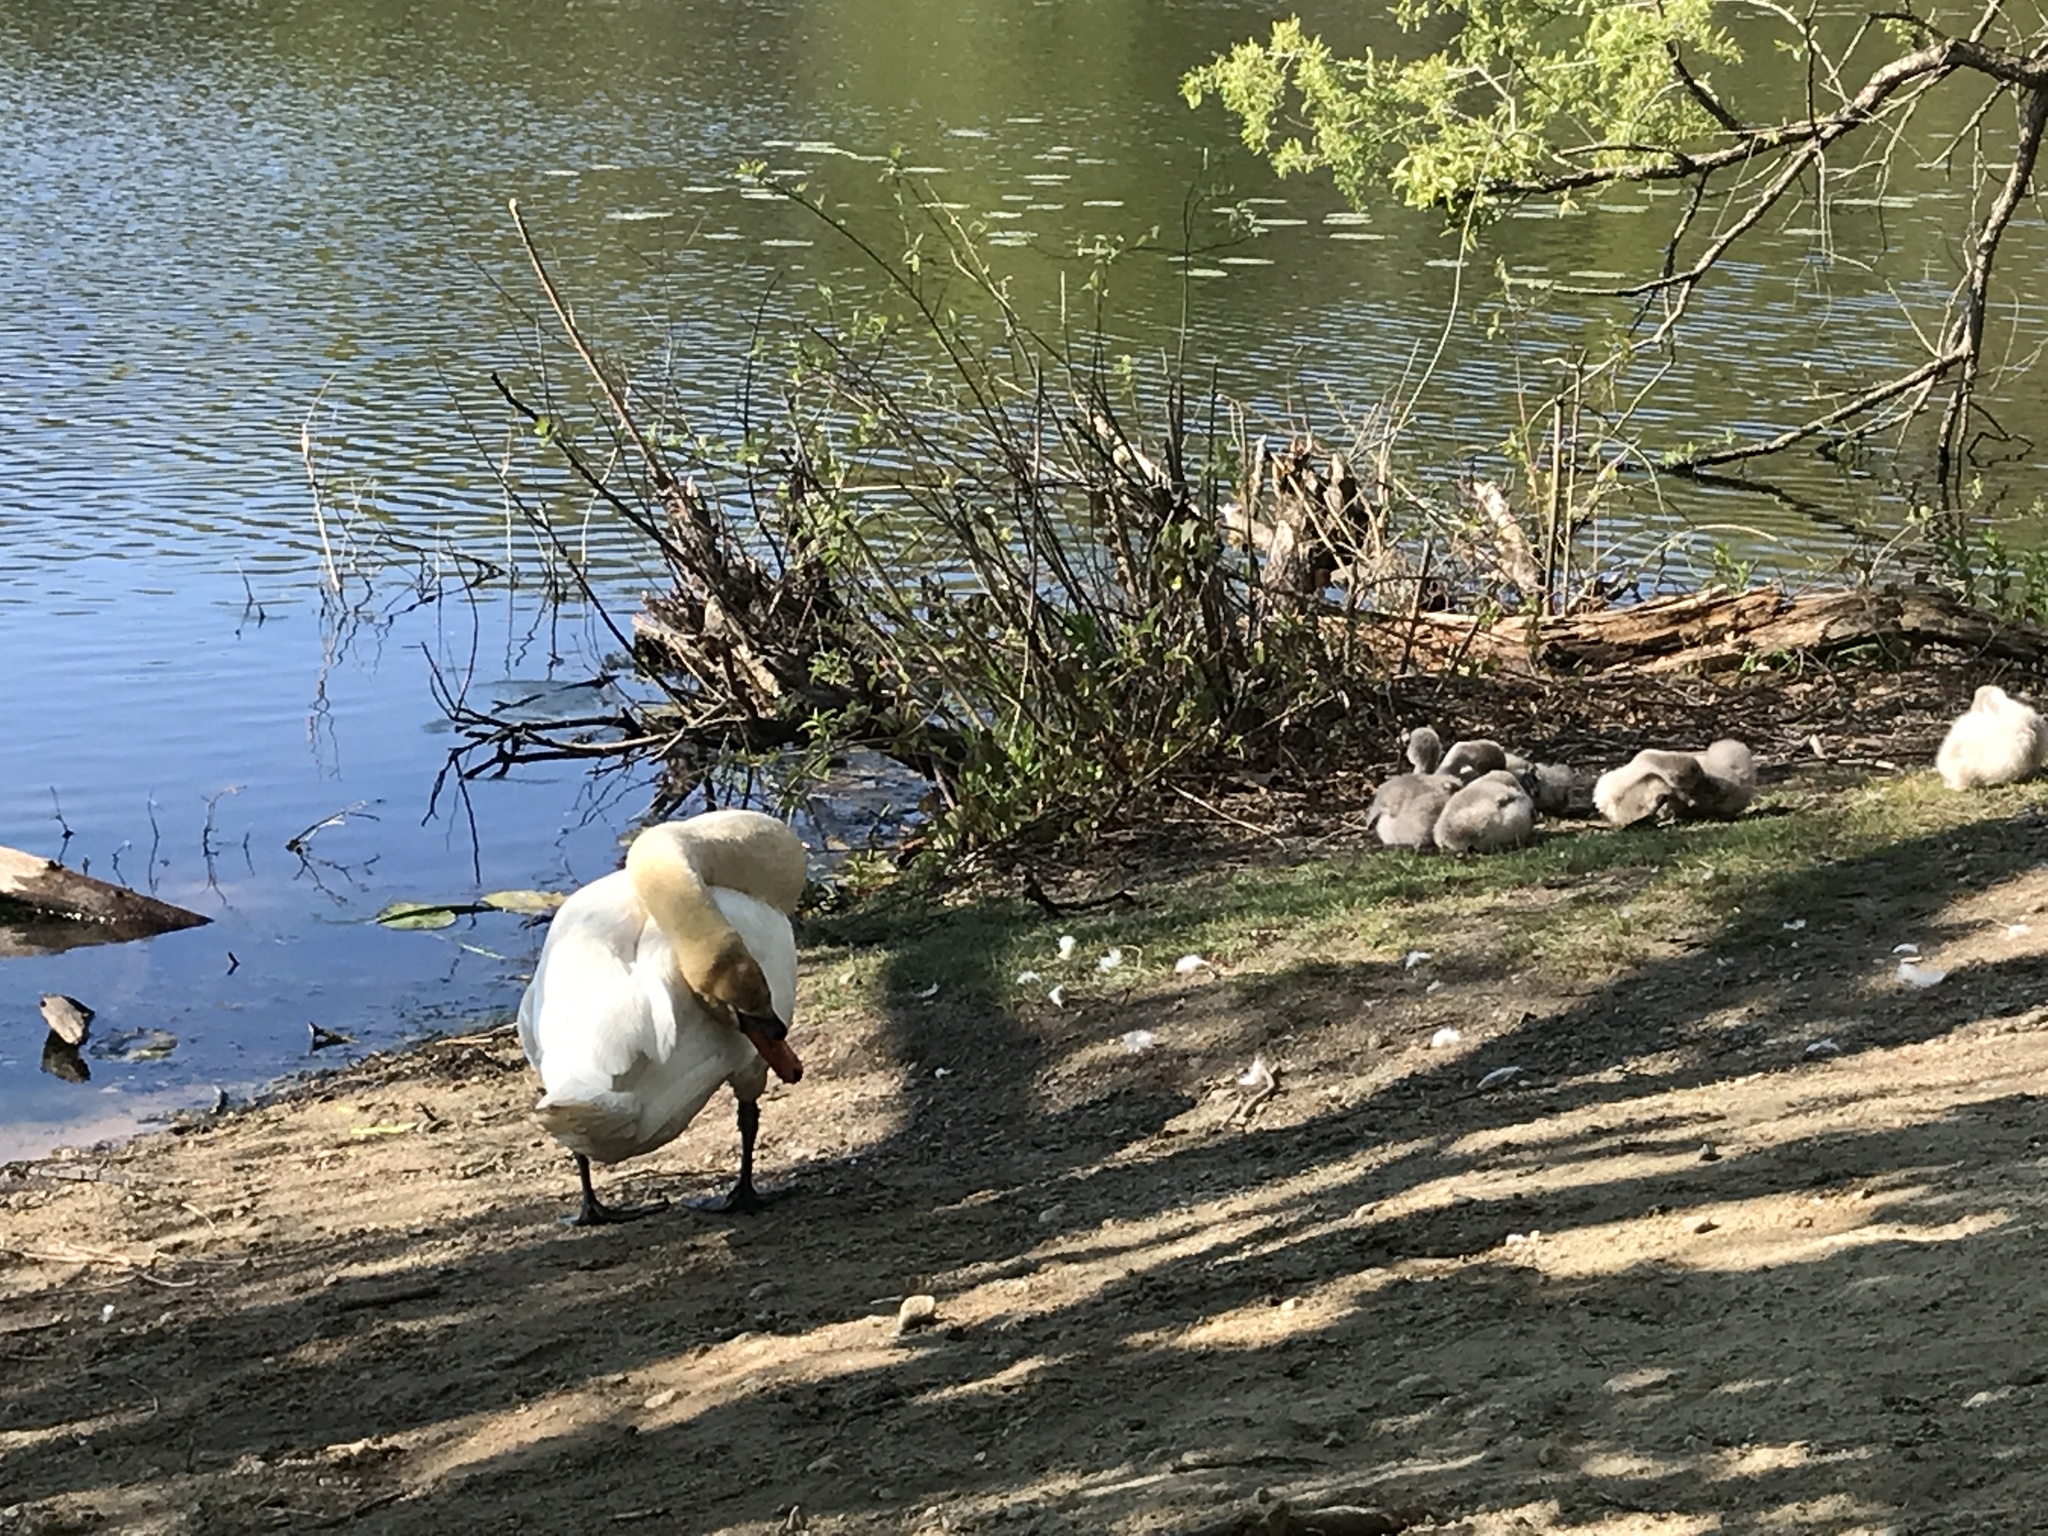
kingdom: Animalia
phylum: Chordata
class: Aves
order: Anseriformes
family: Anatidae
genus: Cygnus
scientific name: Cygnus olor
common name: Mute swan
